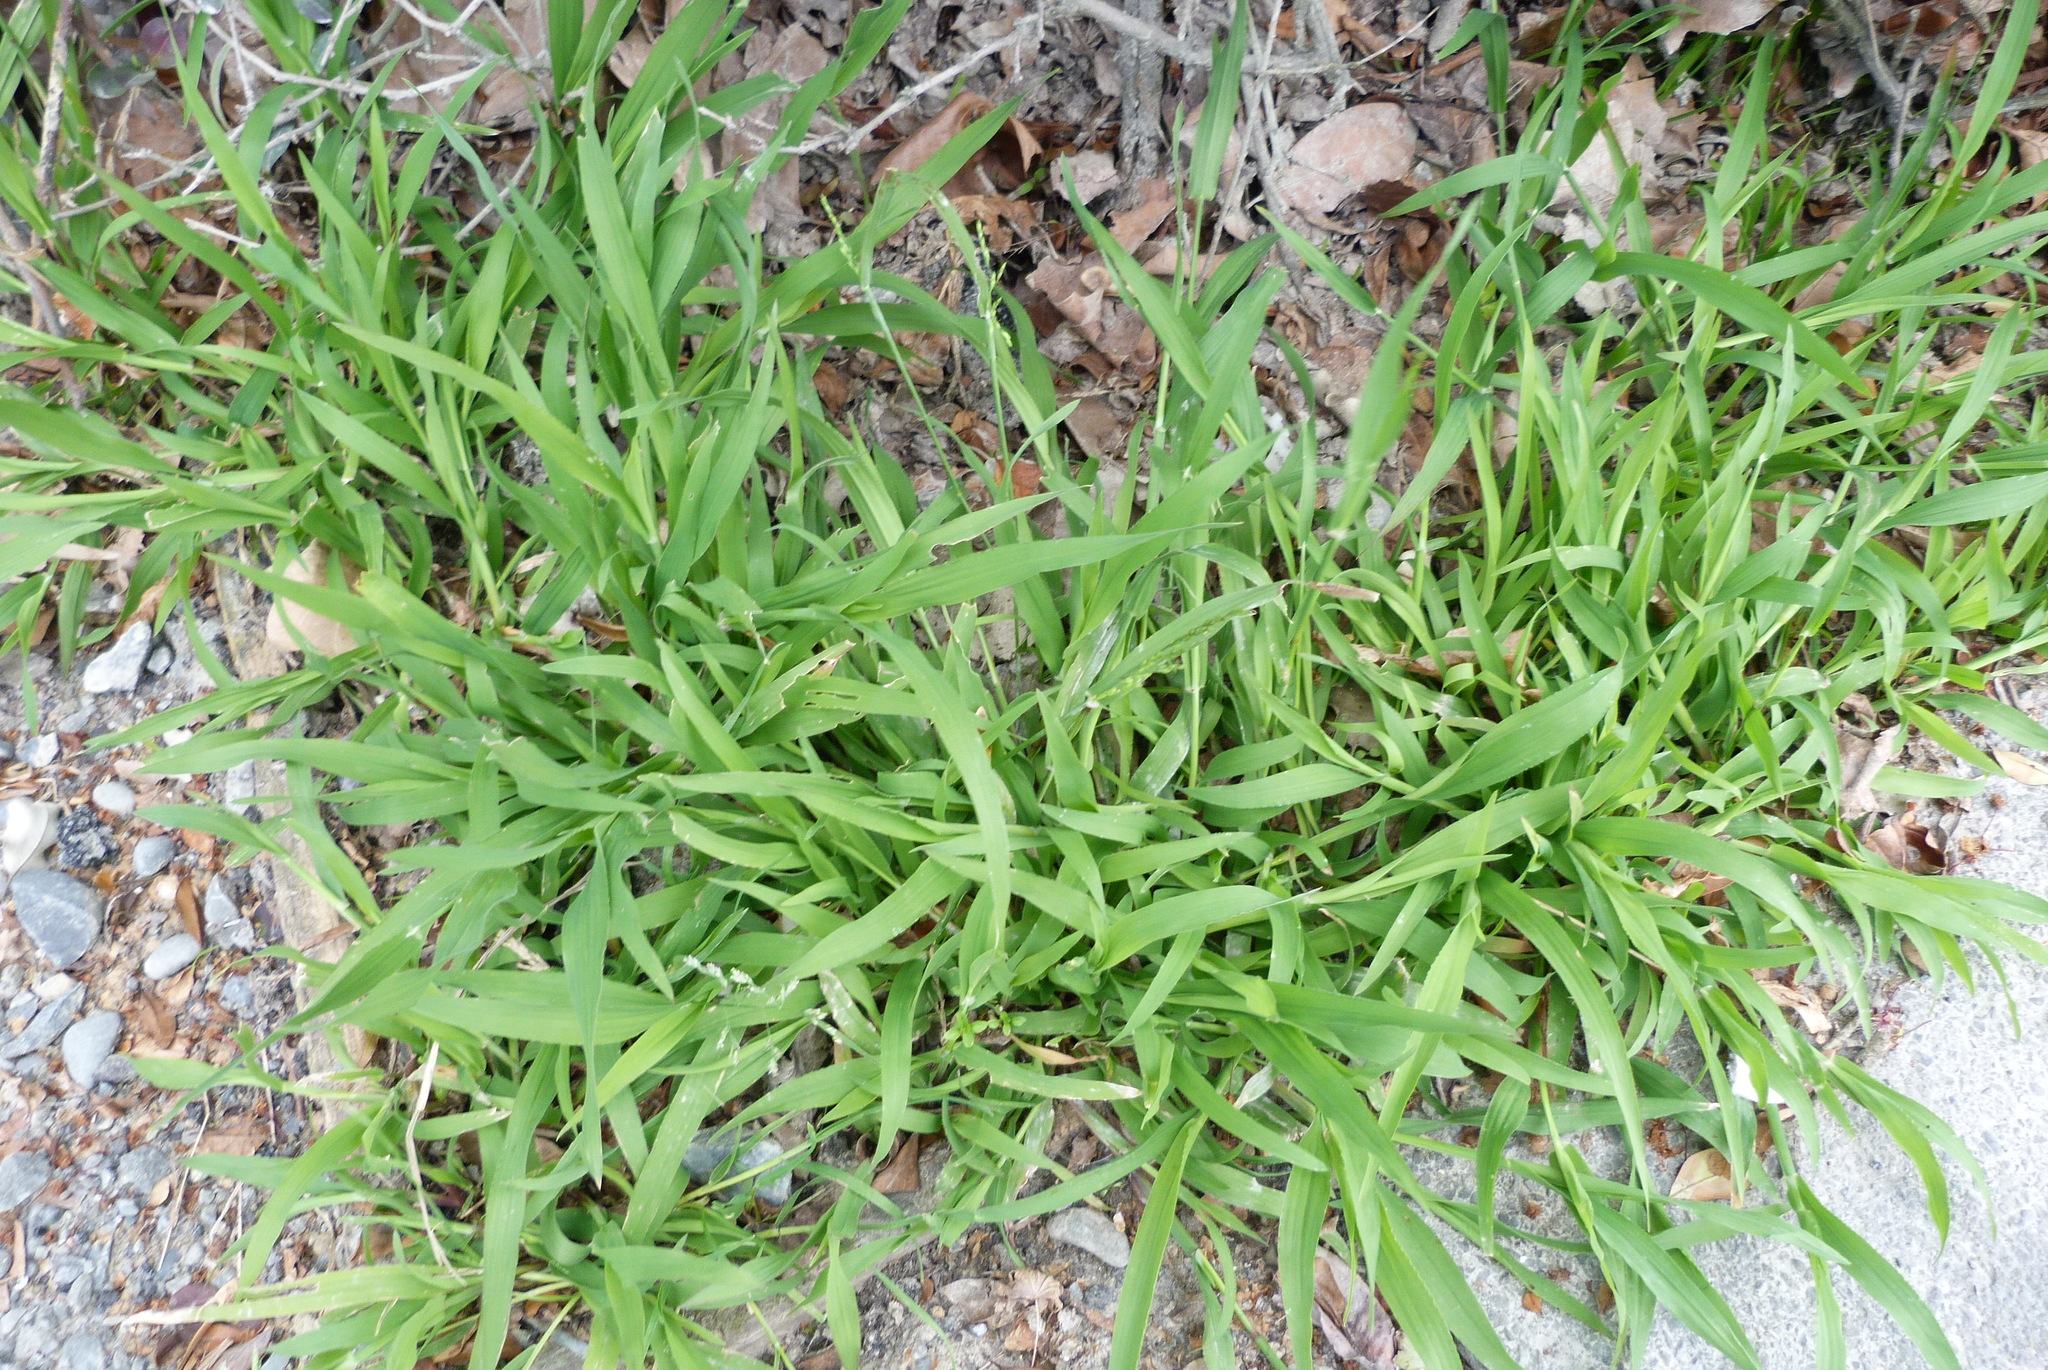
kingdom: Plantae
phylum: Tracheophyta
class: Liliopsida
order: Poales
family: Poaceae
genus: Ehrharta
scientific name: Ehrharta erecta
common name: Panic veldtgrass
